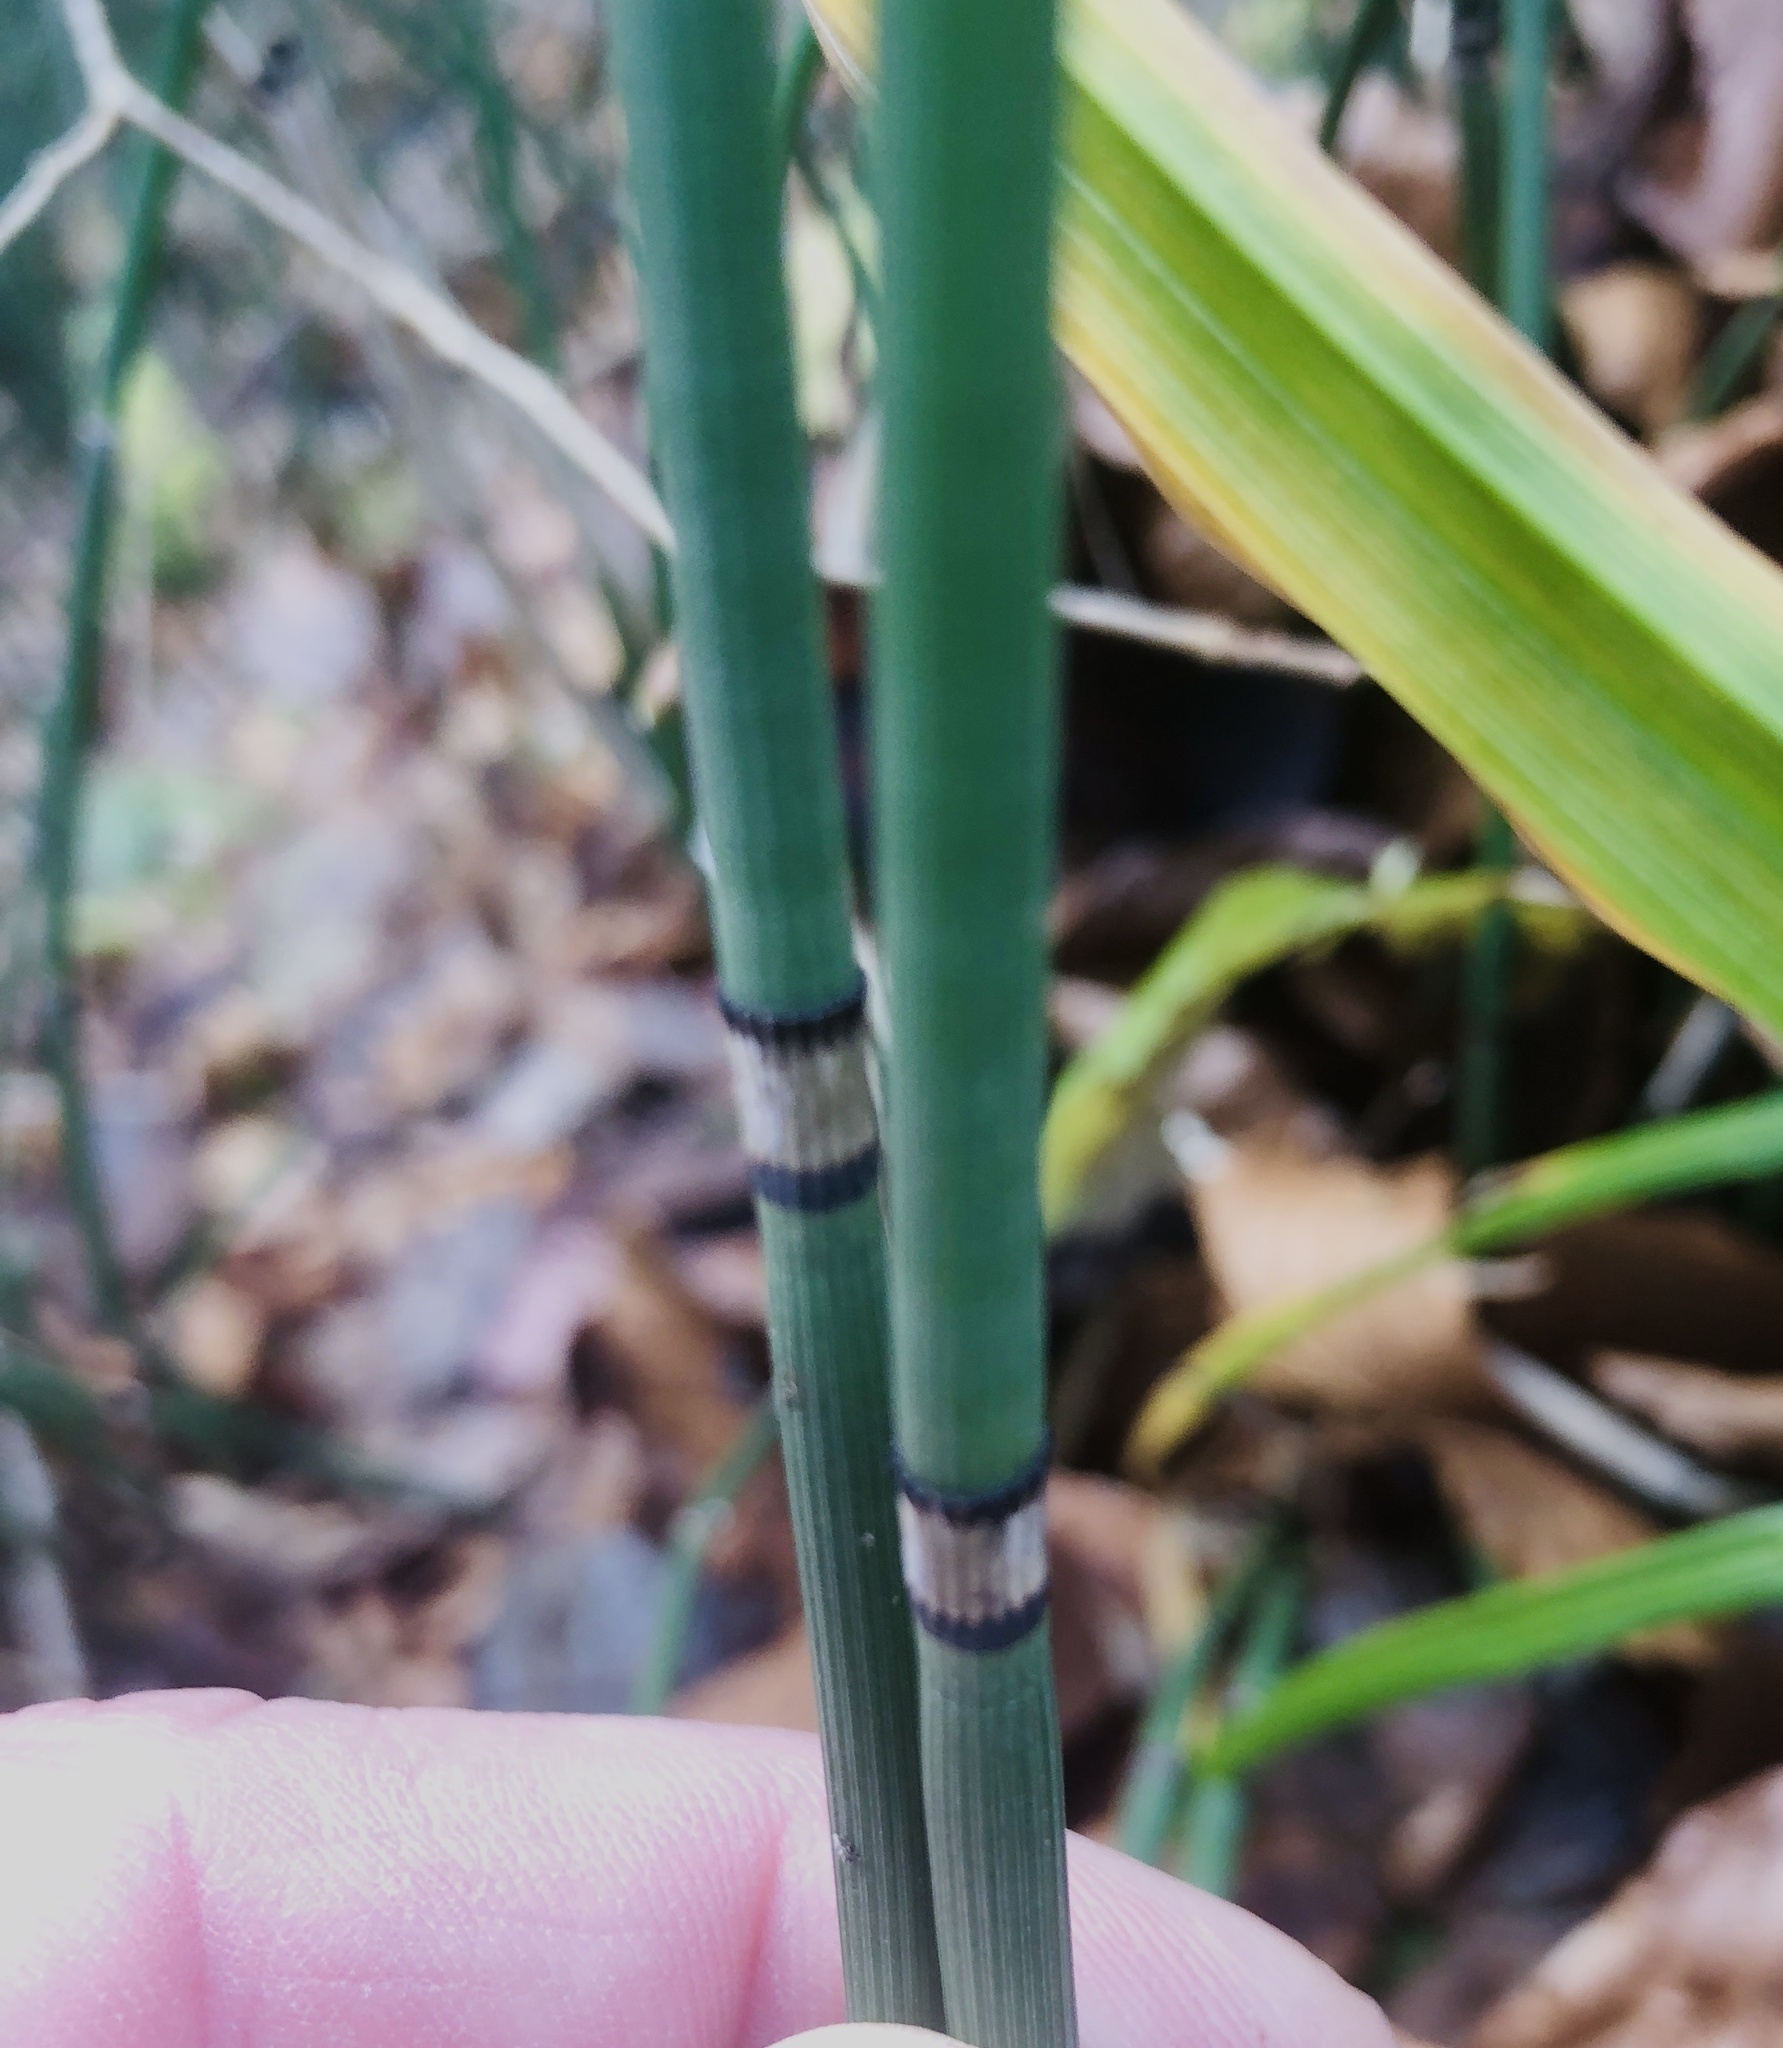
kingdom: Plantae
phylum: Tracheophyta
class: Polypodiopsida
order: Equisetales
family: Equisetaceae
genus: Equisetum
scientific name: Equisetum hyemale
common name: Rough horsetail
